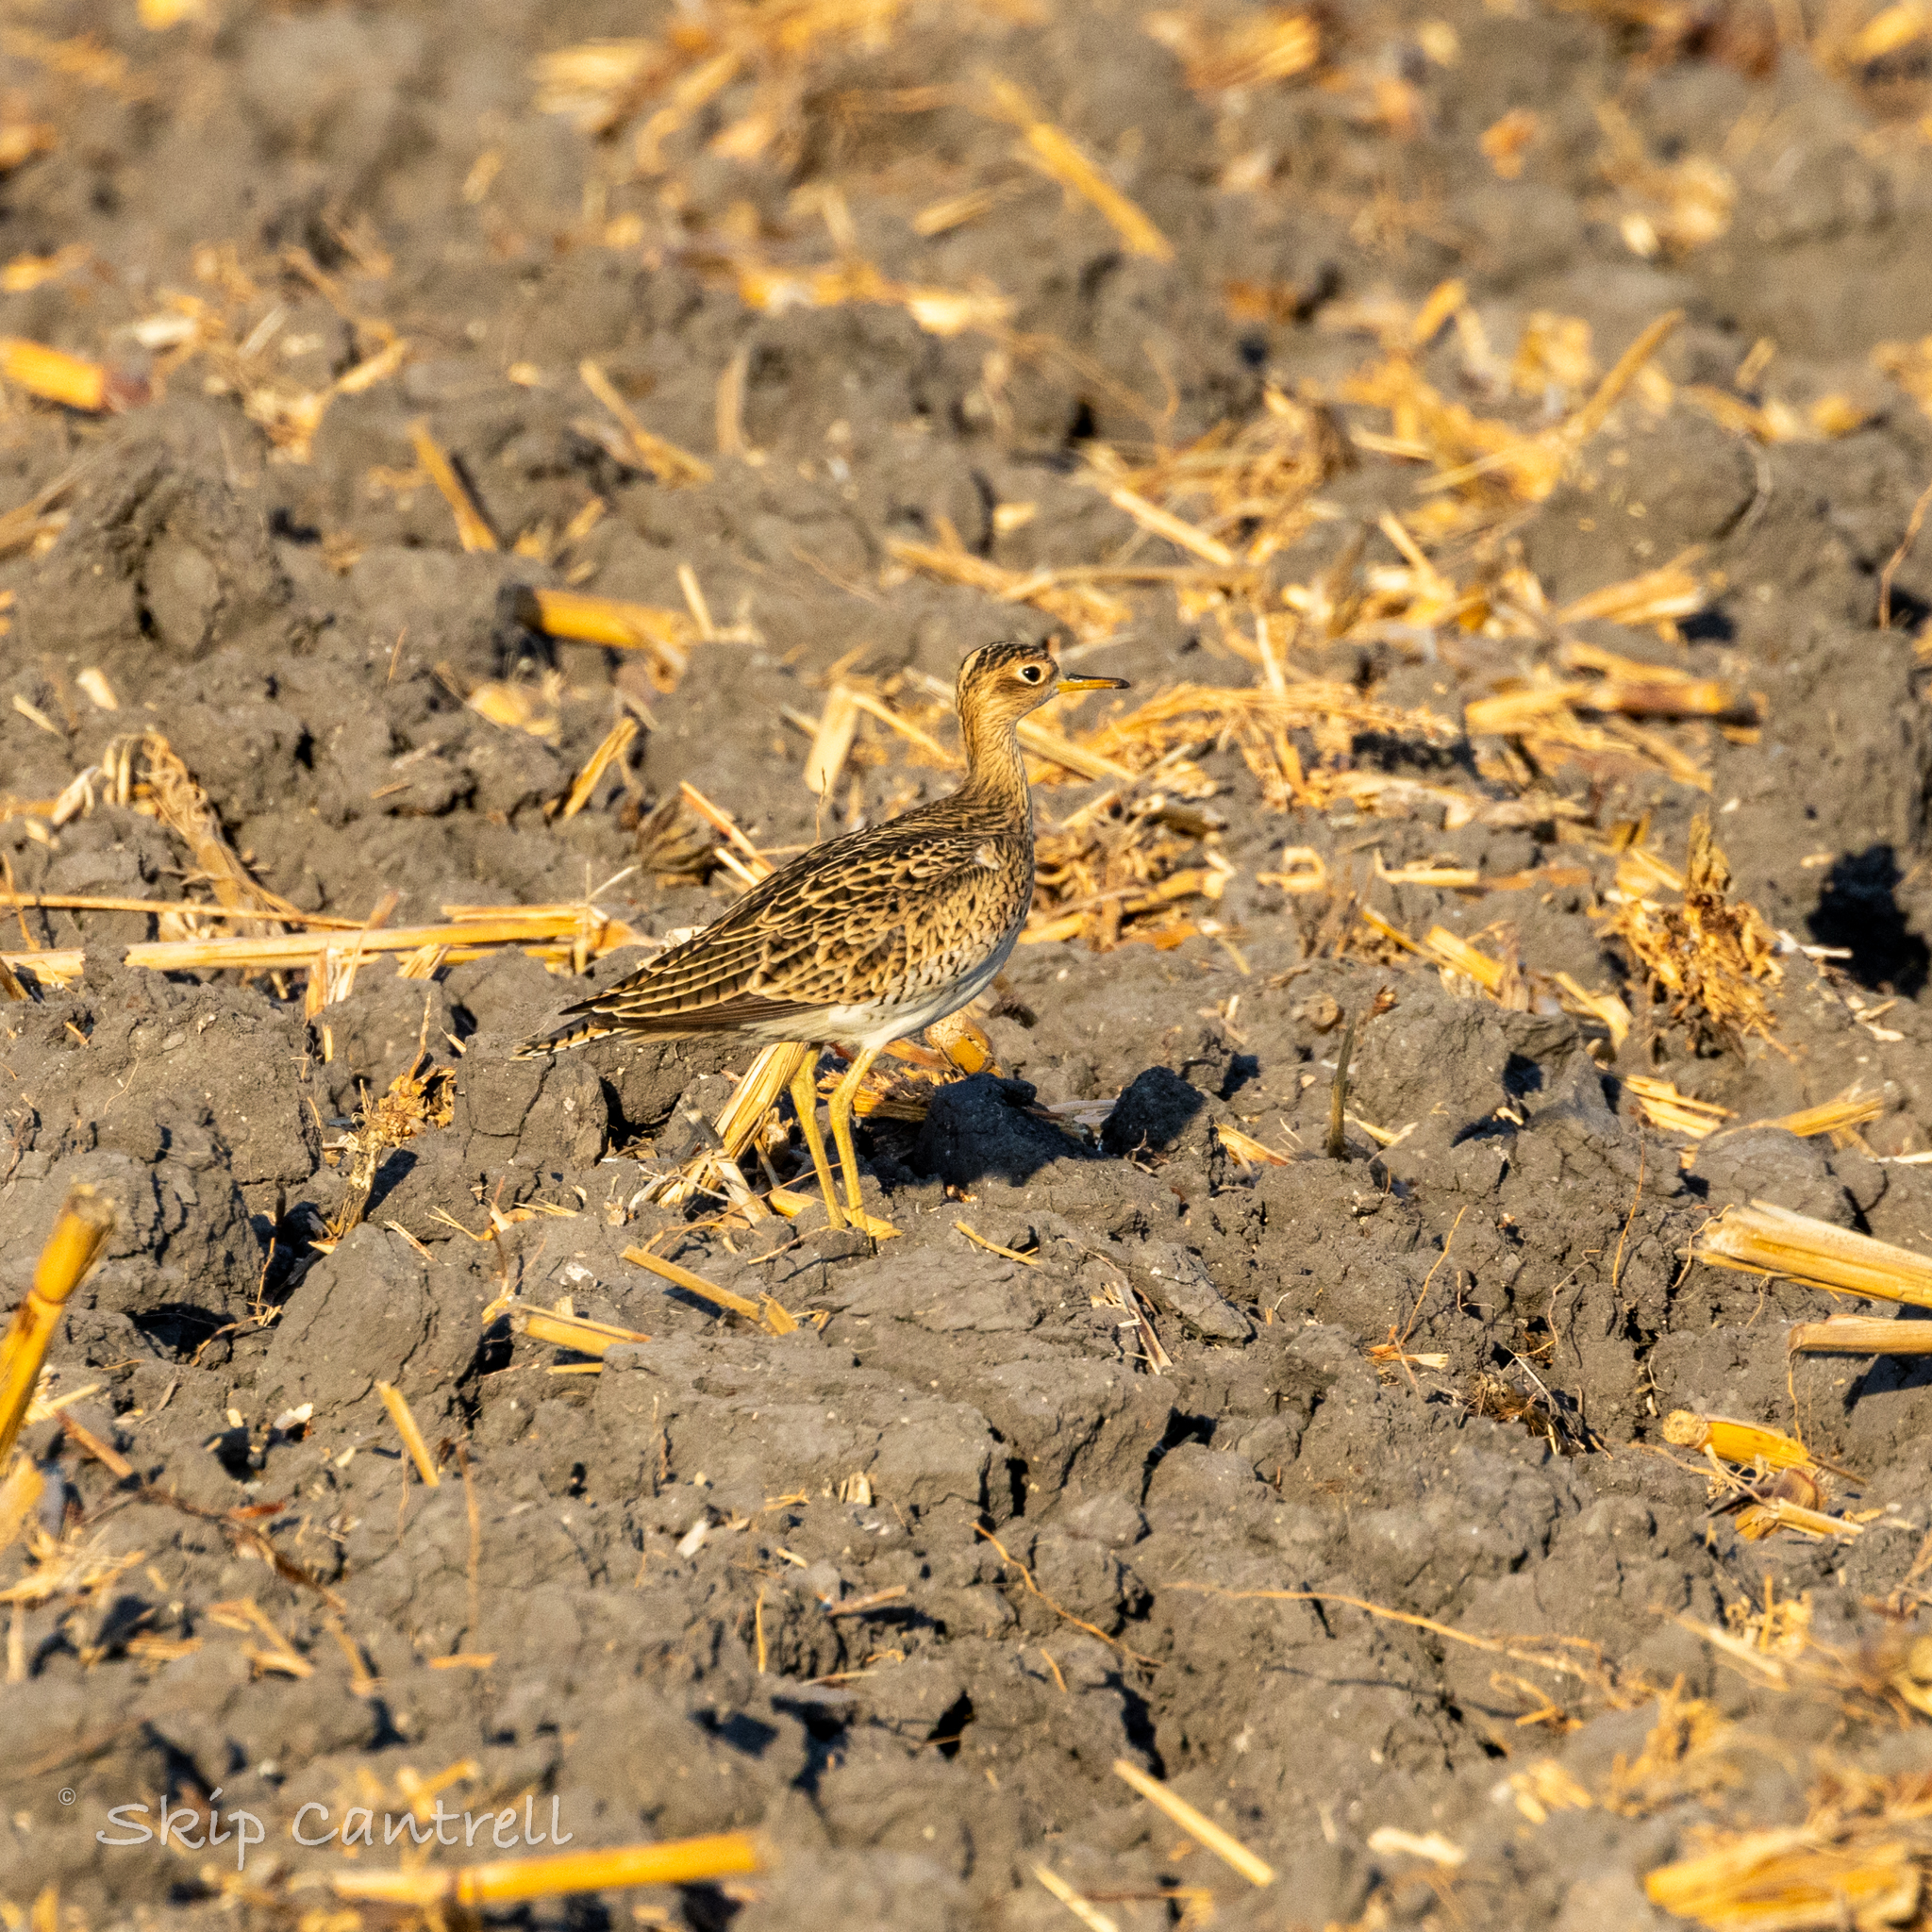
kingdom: Animalia
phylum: Chordata
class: Aves
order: Charadriiformes
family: Scolopacidae
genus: Bartramia
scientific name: Bartramia longicauda
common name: Upland sandpiper
